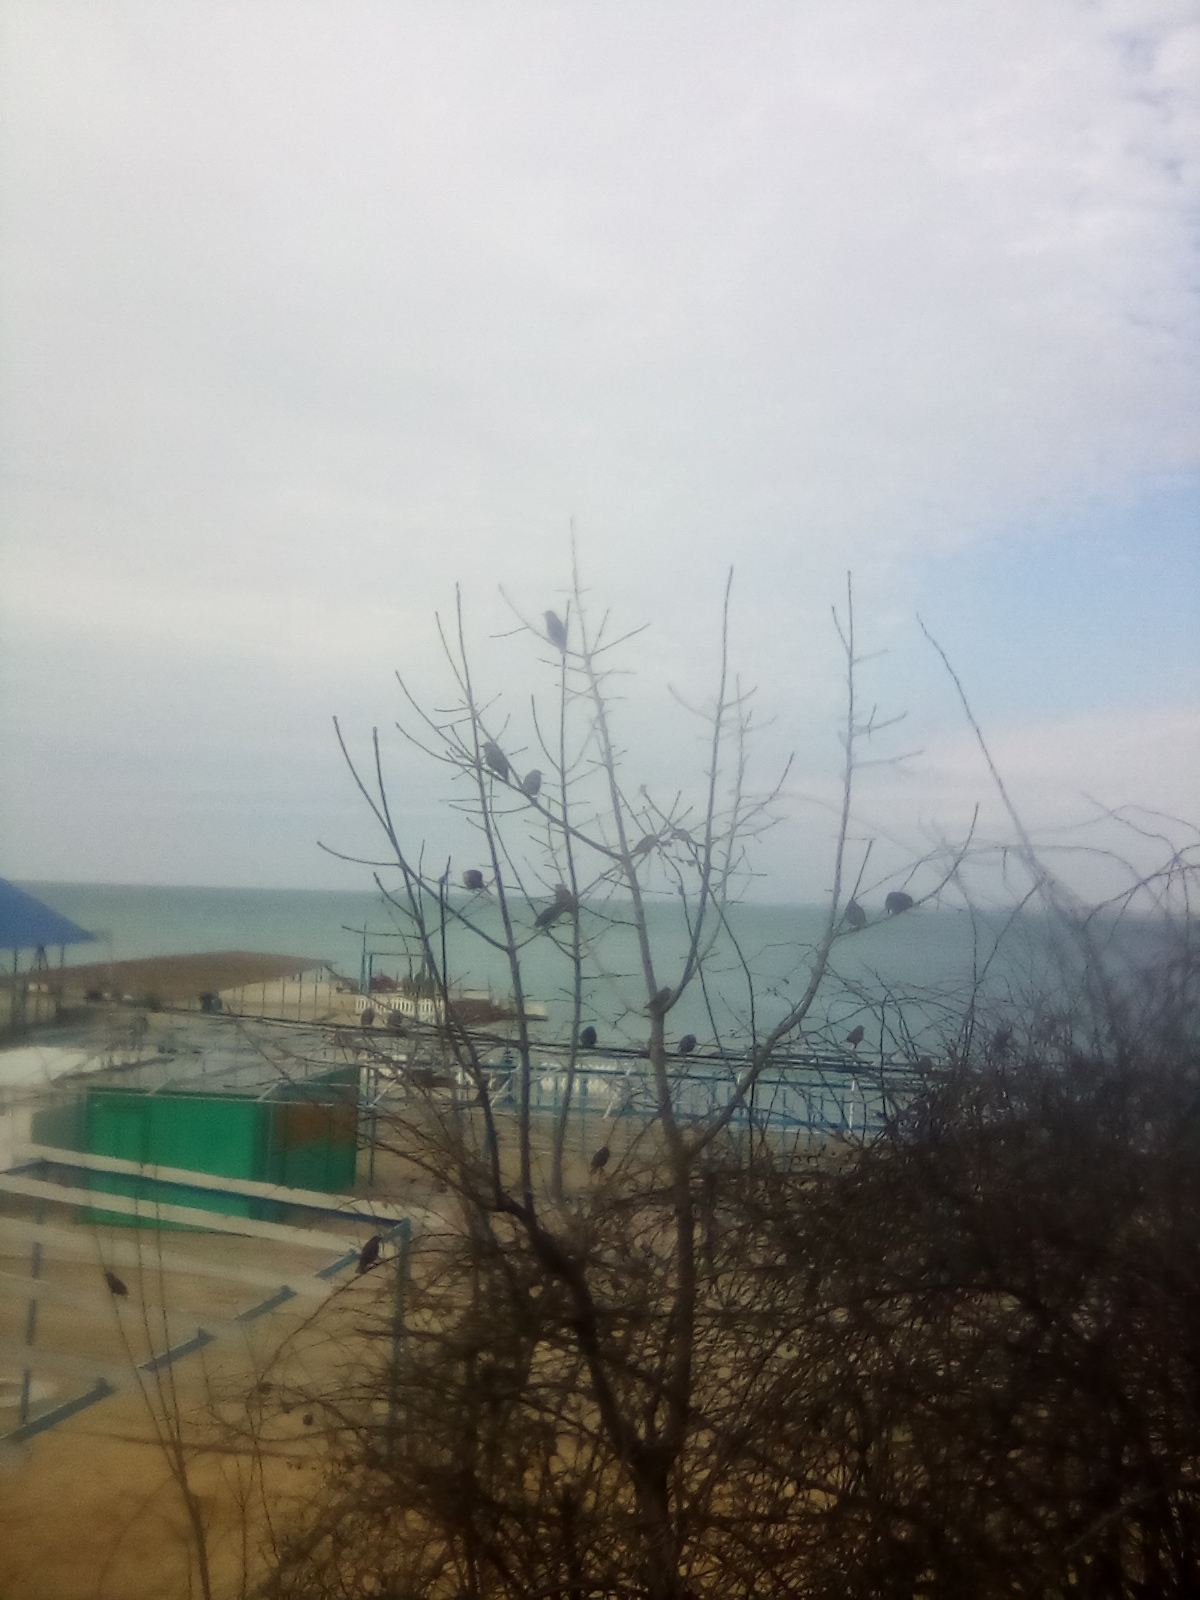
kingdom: Animalia
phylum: Chordata
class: Aves
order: Passeriformes
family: Sturnidae
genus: Sturnus
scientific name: Sturnus vulgaris
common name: Common starling
